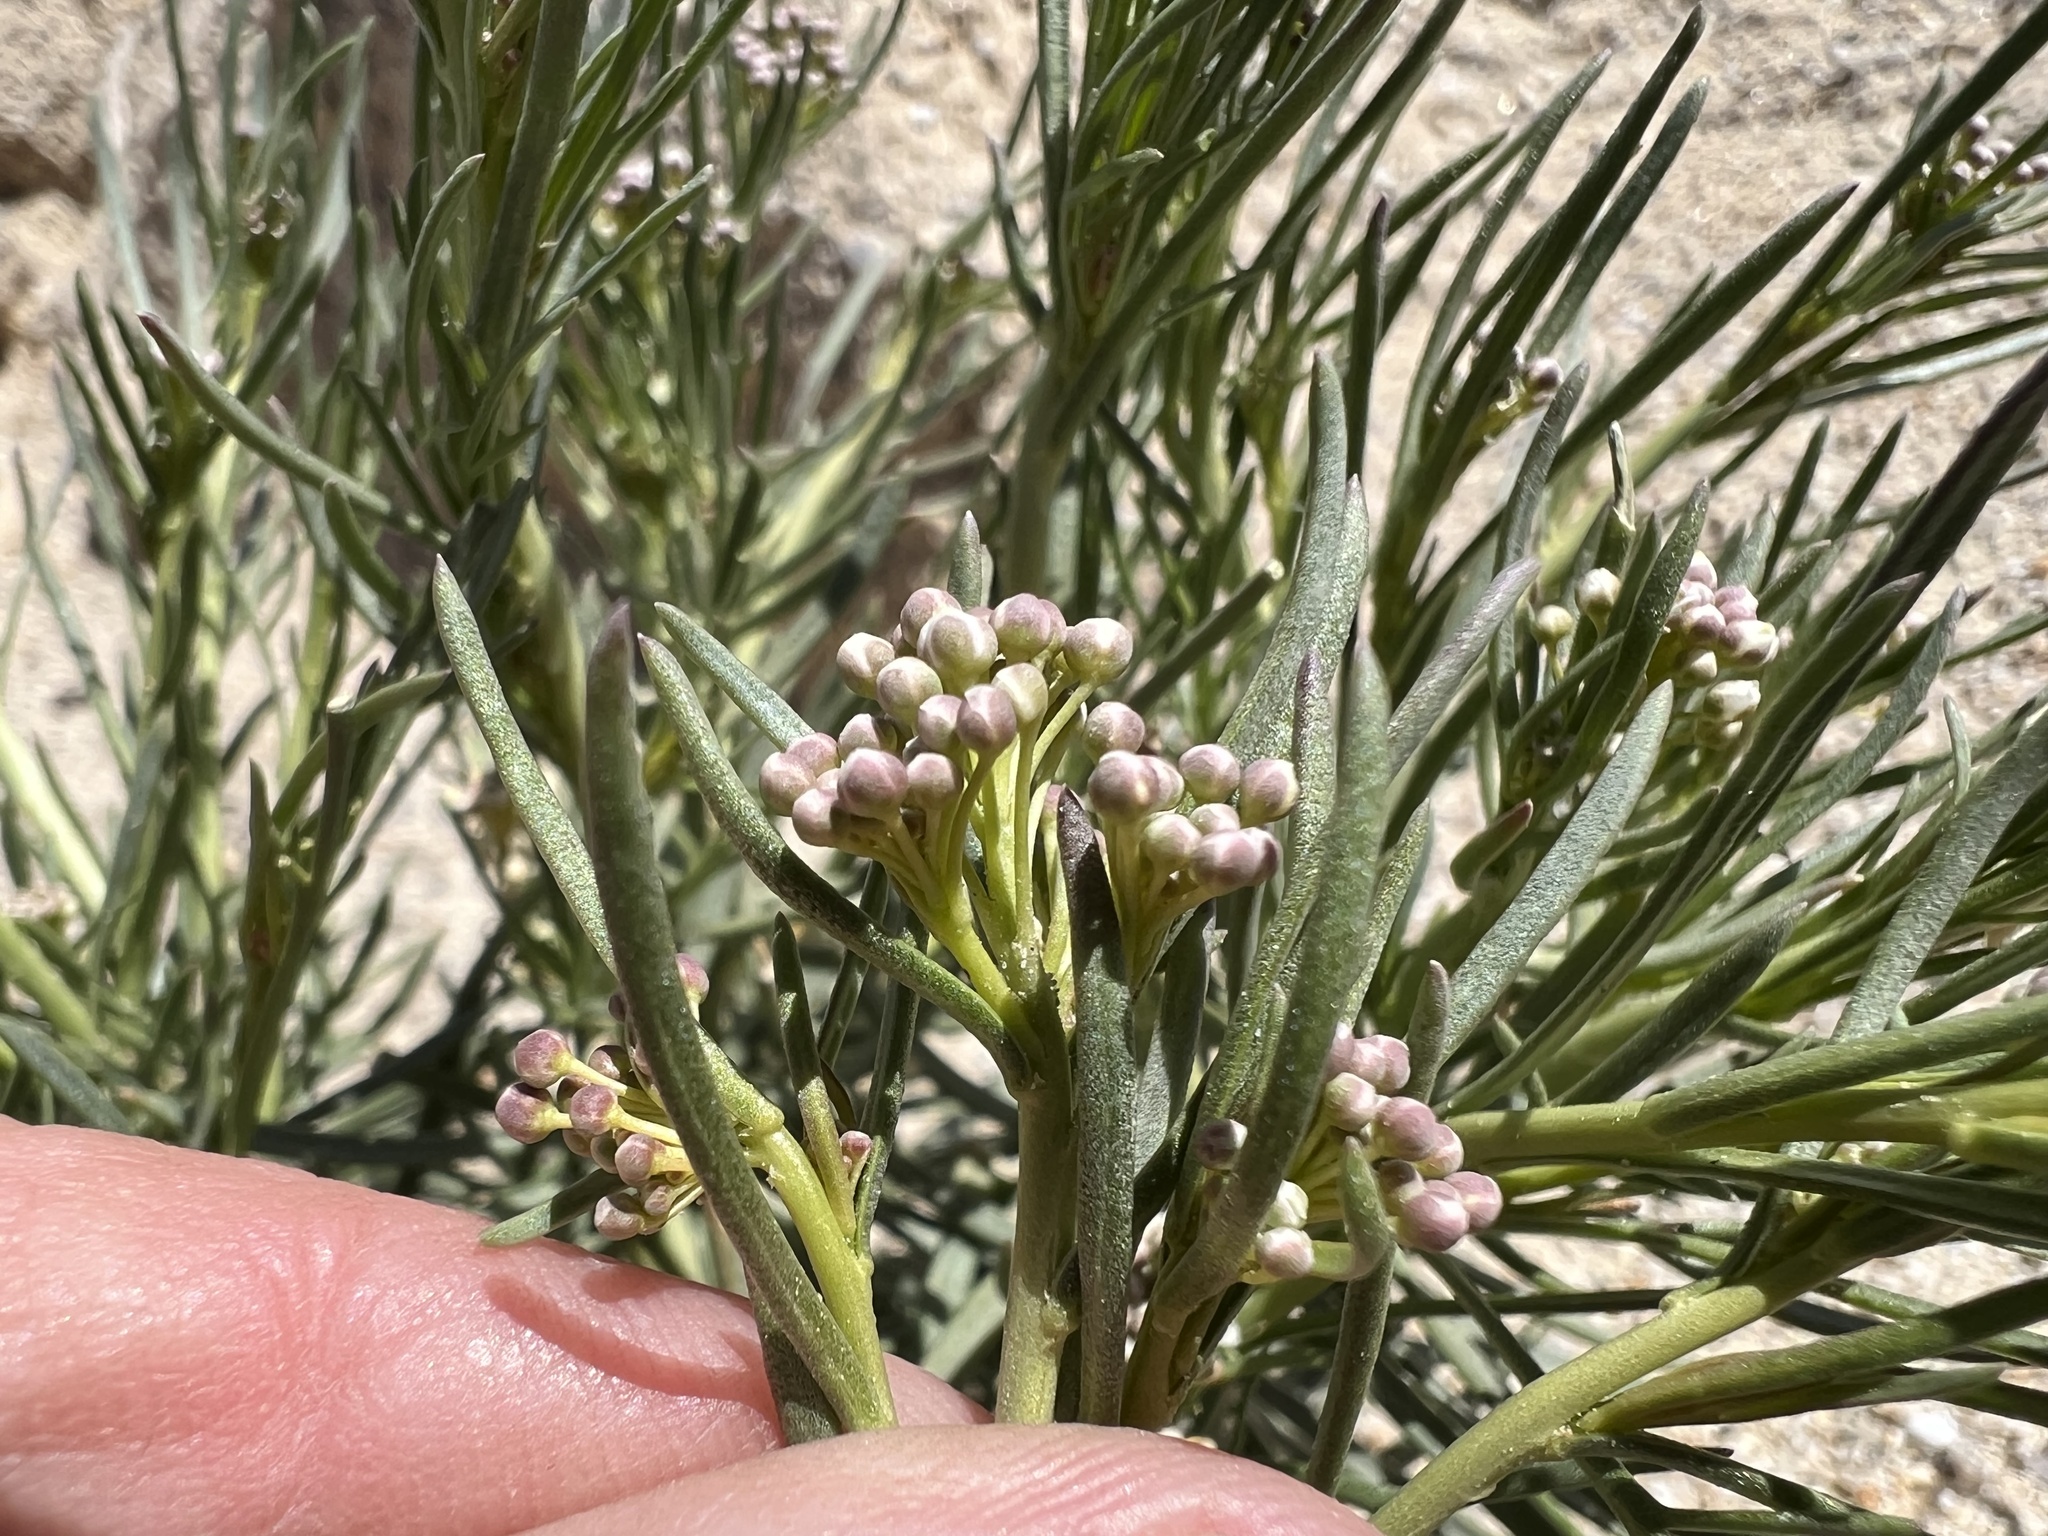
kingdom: Plantae
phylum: Tracheophyta
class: Magnoliopsida
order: Brassicales
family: Brassicaceae
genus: Lepidium
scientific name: Lepidium fremontii
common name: Fremont's pepperwort
